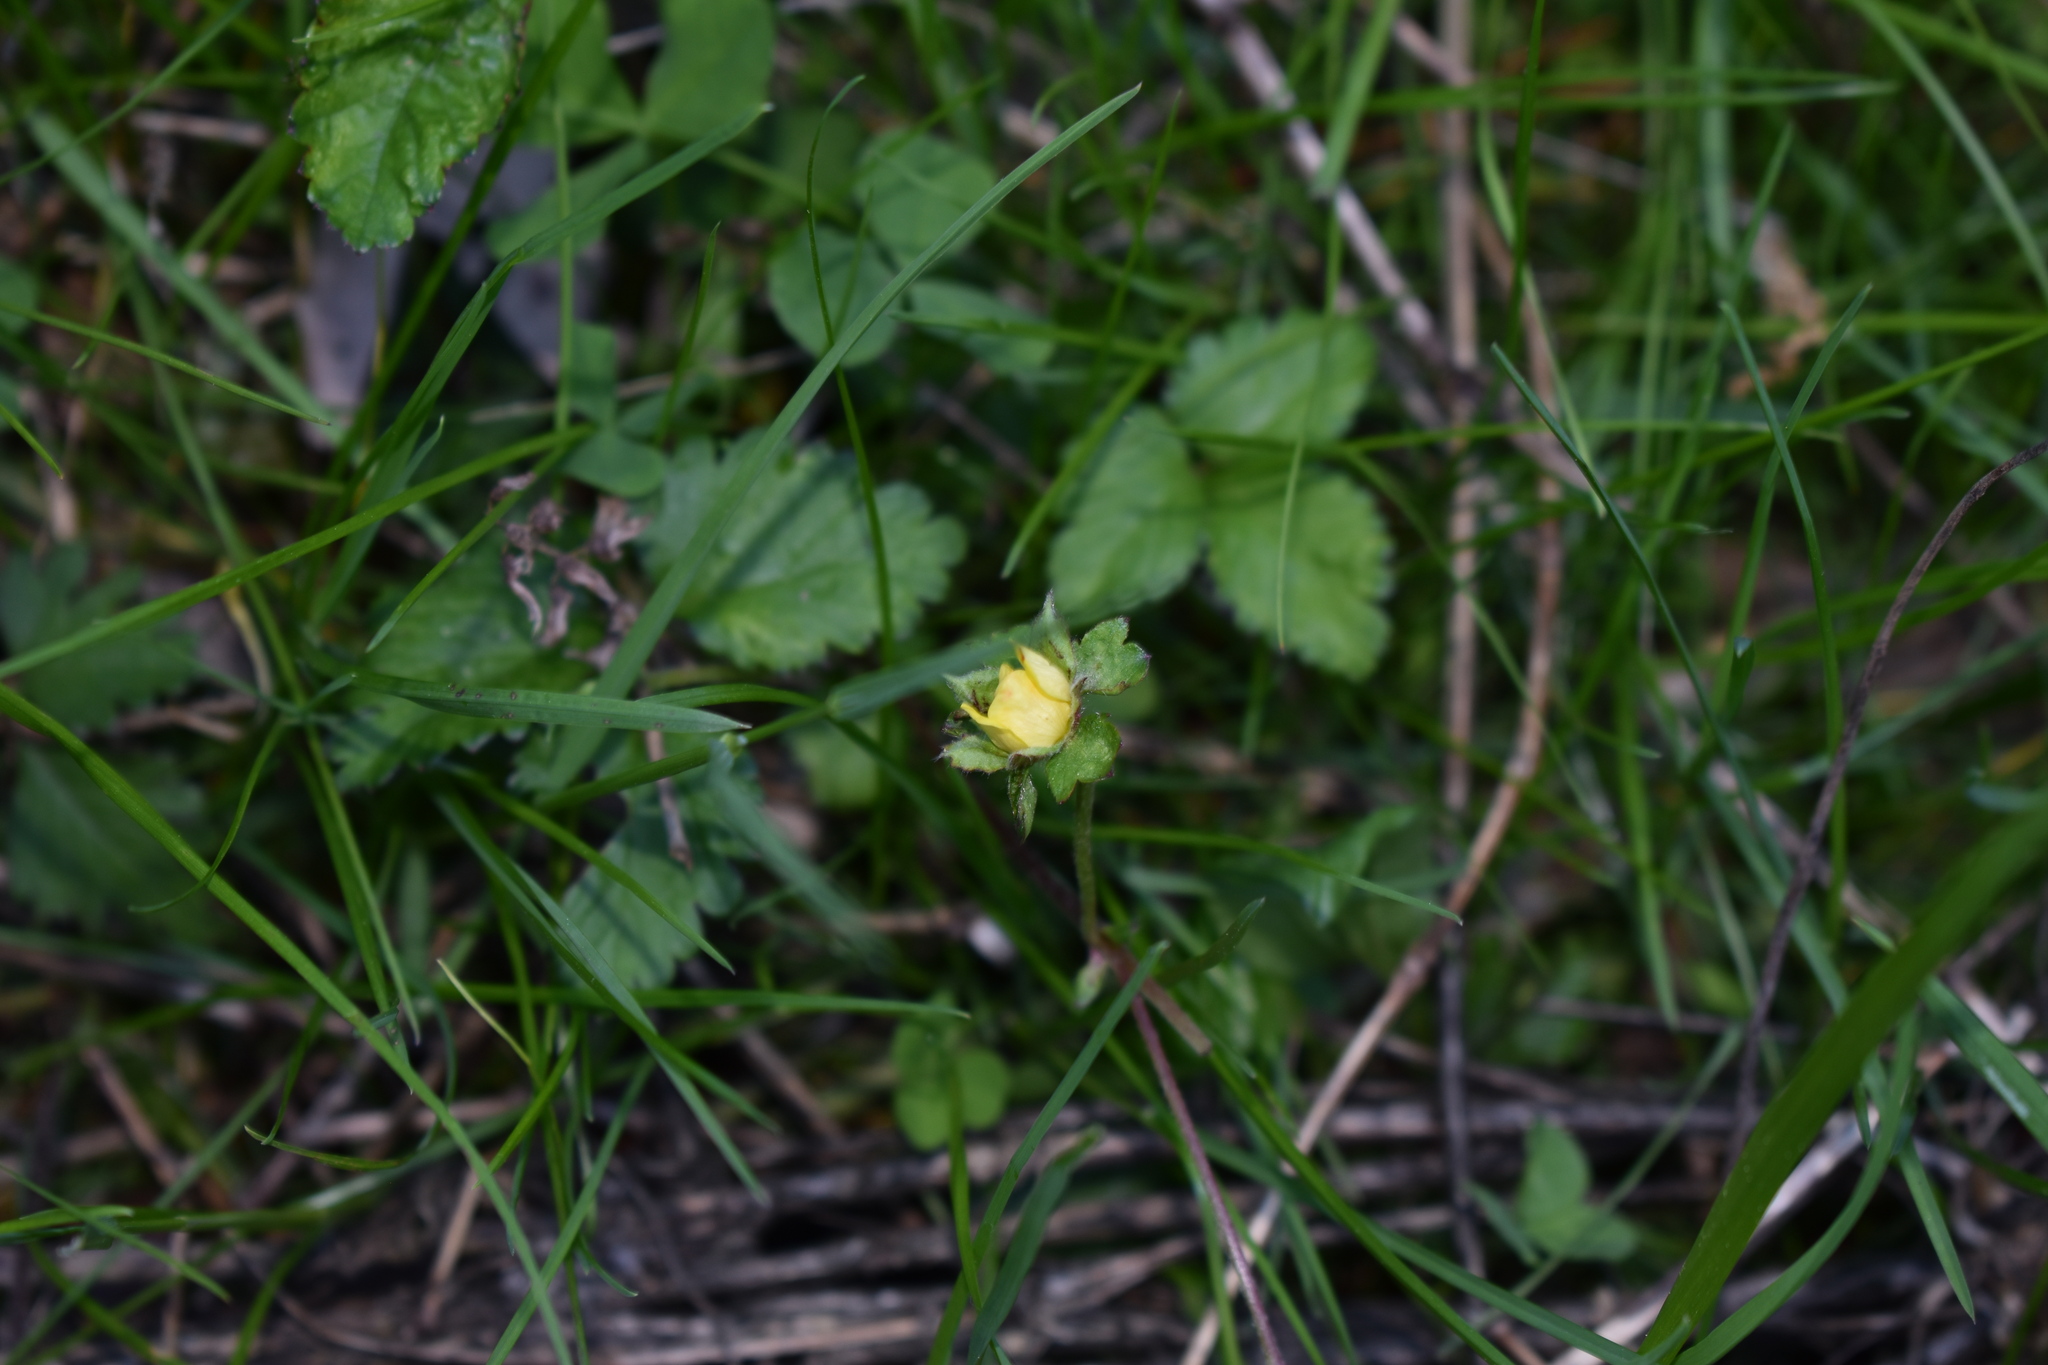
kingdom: Plantae
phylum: Tracheophyta
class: Magnoliopsida
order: Rosales
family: Rosaceae
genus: Potentilla
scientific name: Potentilla indica
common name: Yellow-flowered strawberry
